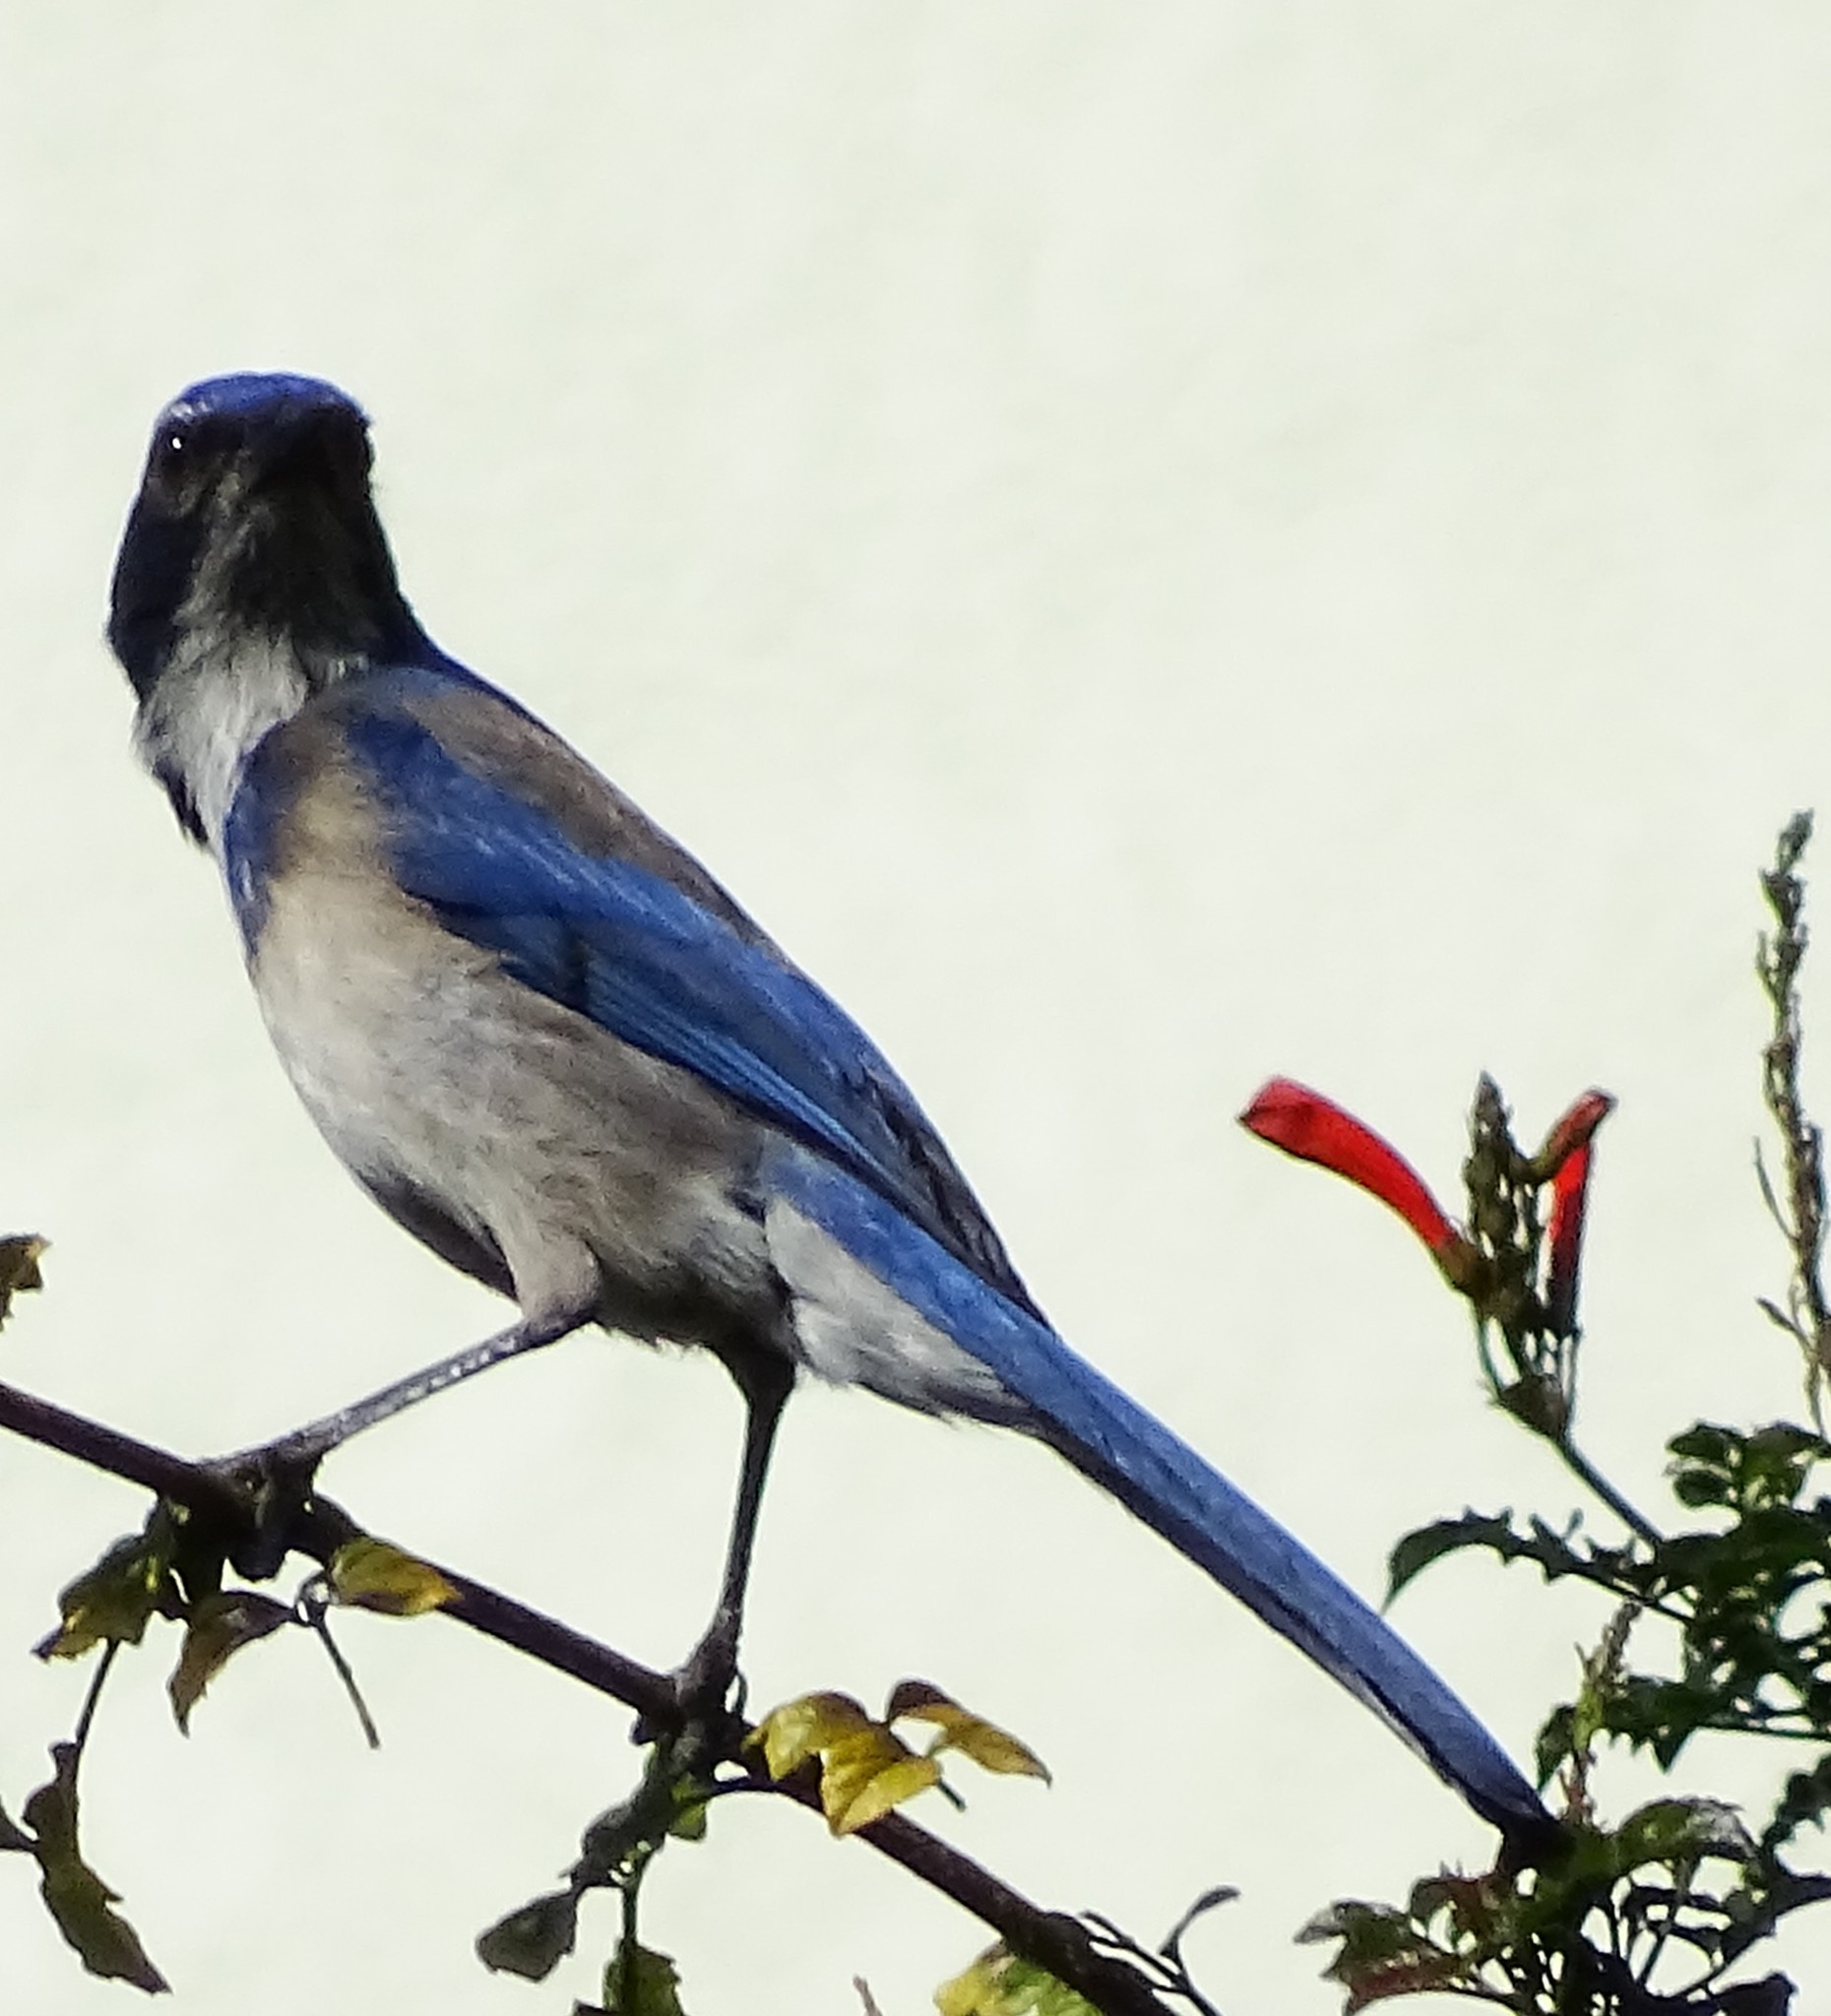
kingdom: Animalia
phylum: Chordata
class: Aves
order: Passeriformes
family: Corvidae
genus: Aphelocoma
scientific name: Aphelocoma californica
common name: California scrub-jay
